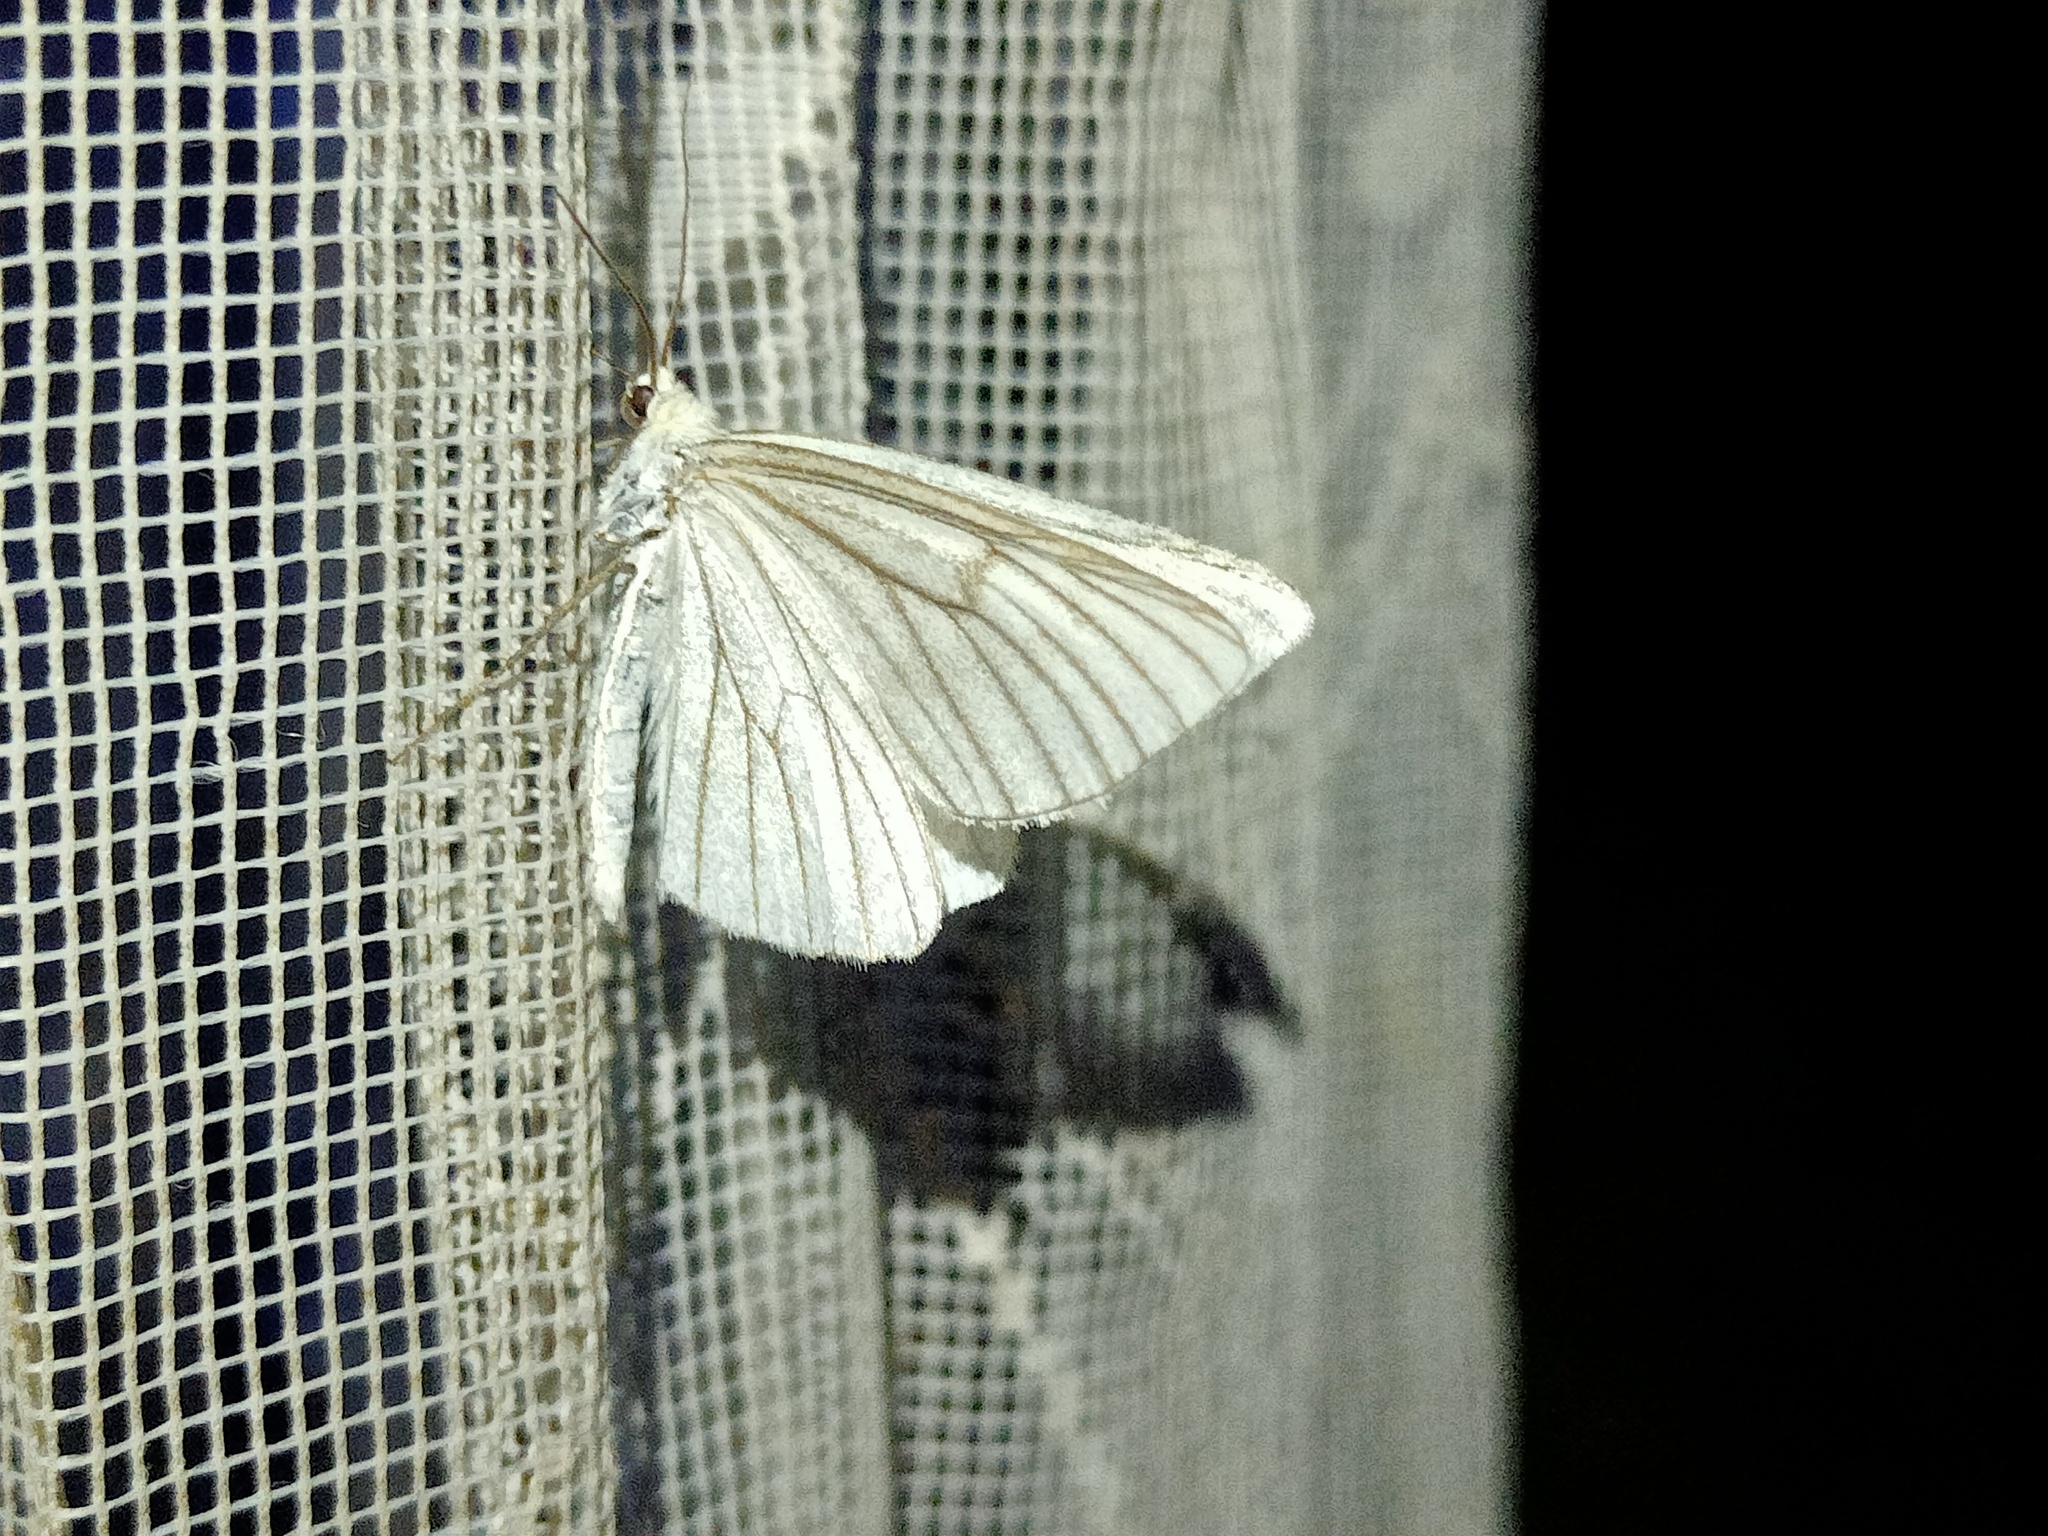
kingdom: Animalia
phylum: Arthropoda
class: Insecta
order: Lepidoptera
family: Geometridae
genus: Siona
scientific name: Siona lineata
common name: Black-veined moth
